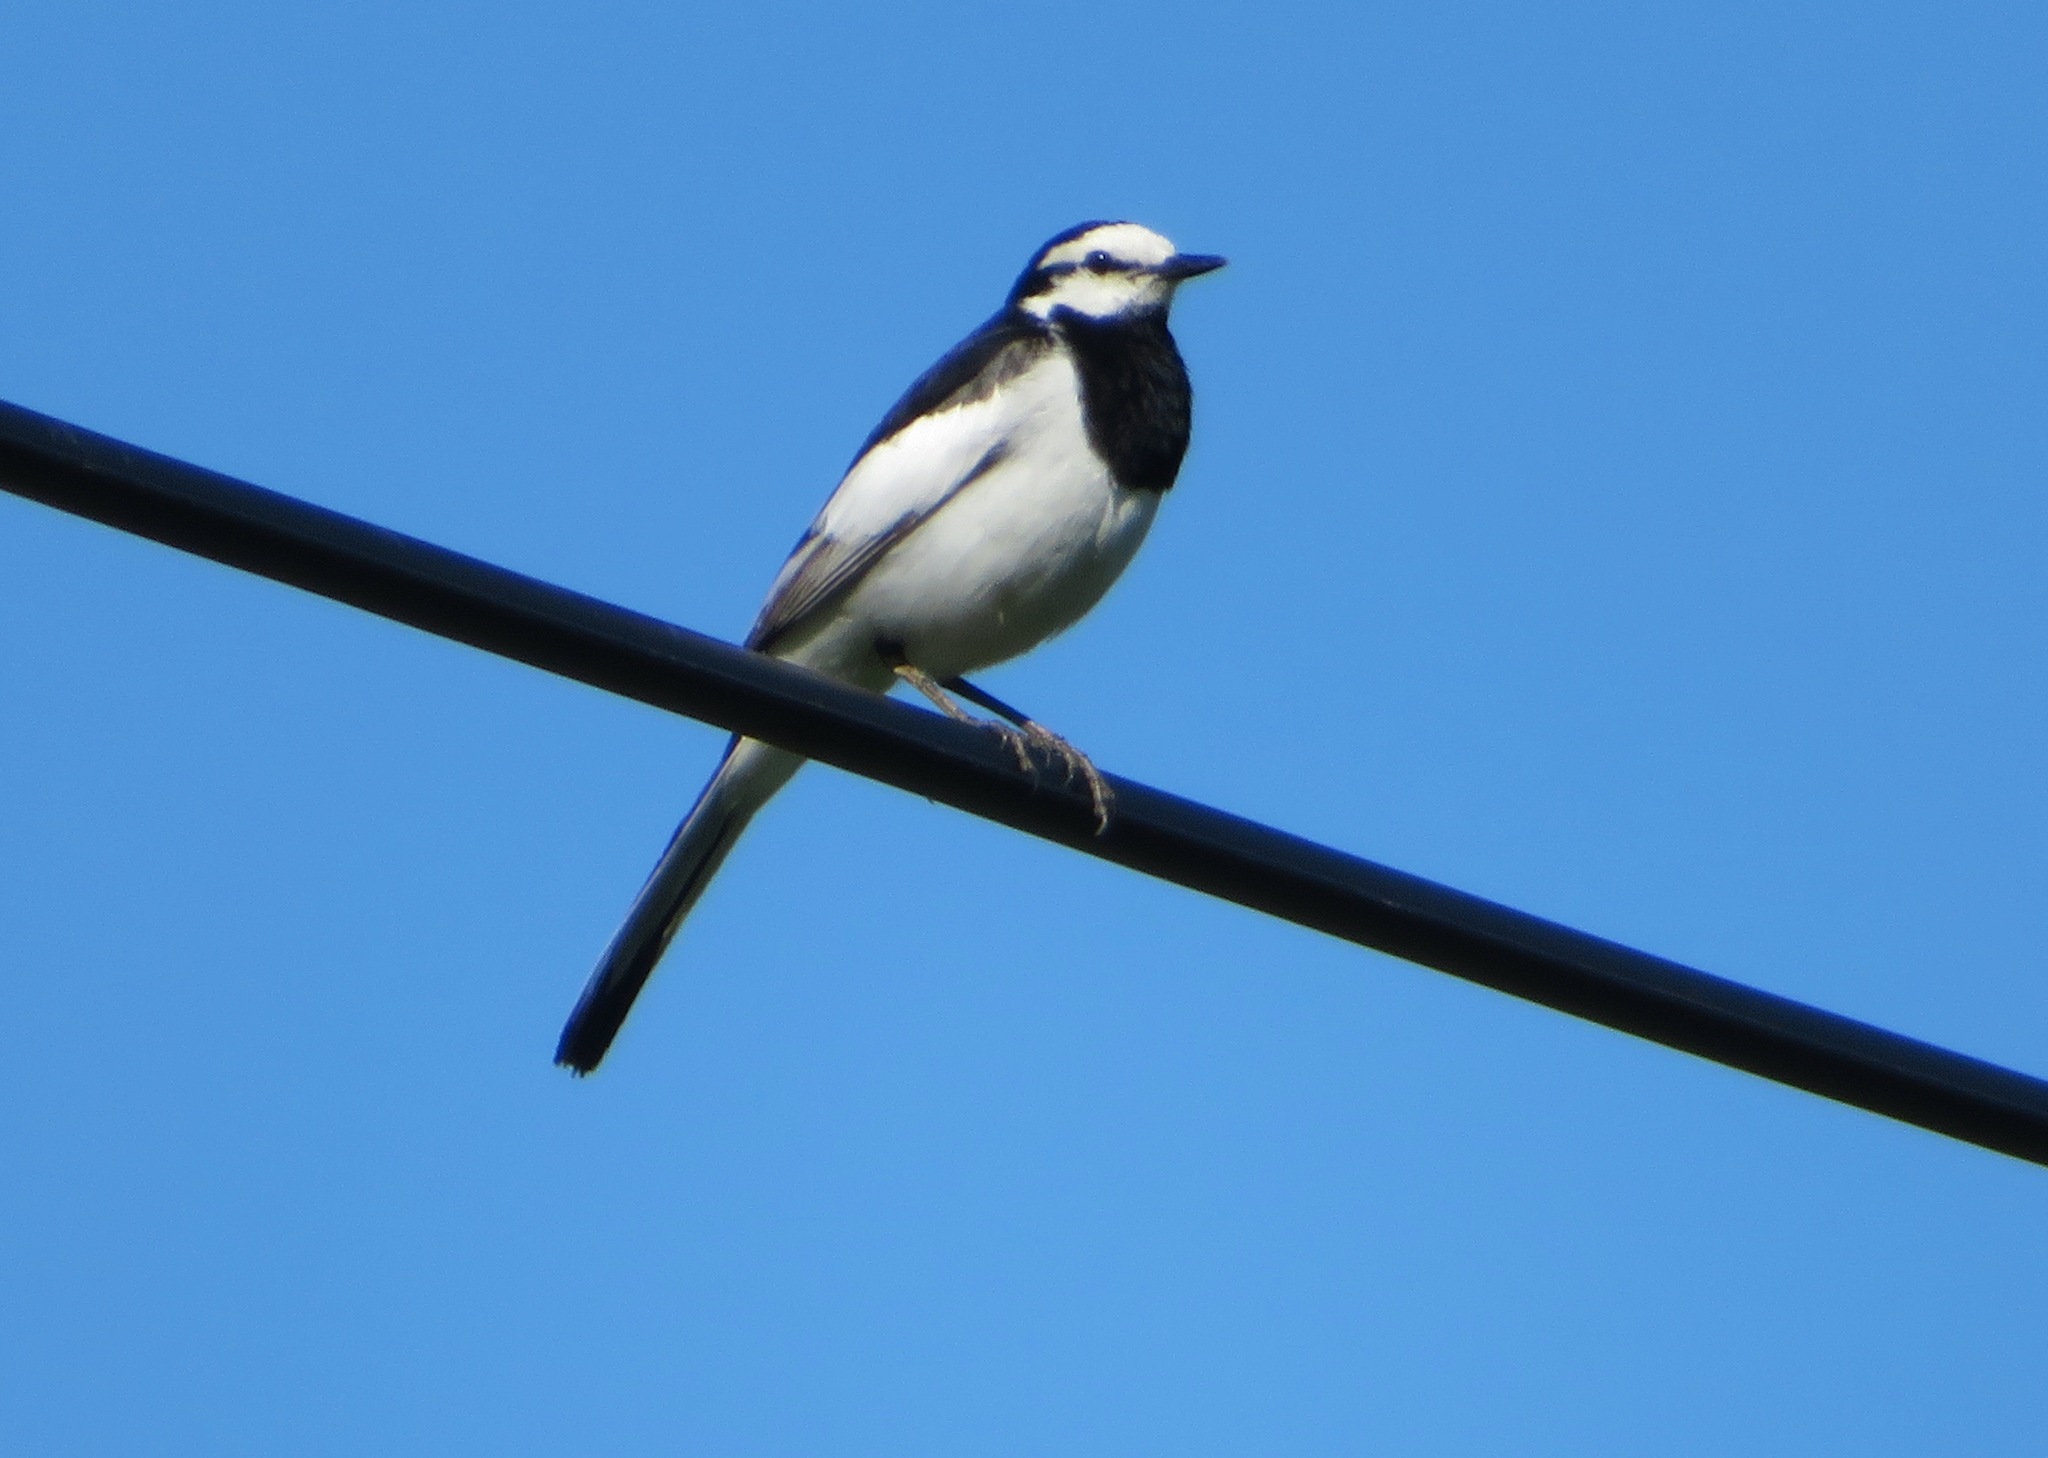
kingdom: Animalia
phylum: Chordata
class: Aves
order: Passeriformes
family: Motacillidae
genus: Motacilla
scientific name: Motacilla alba
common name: White wagtail
